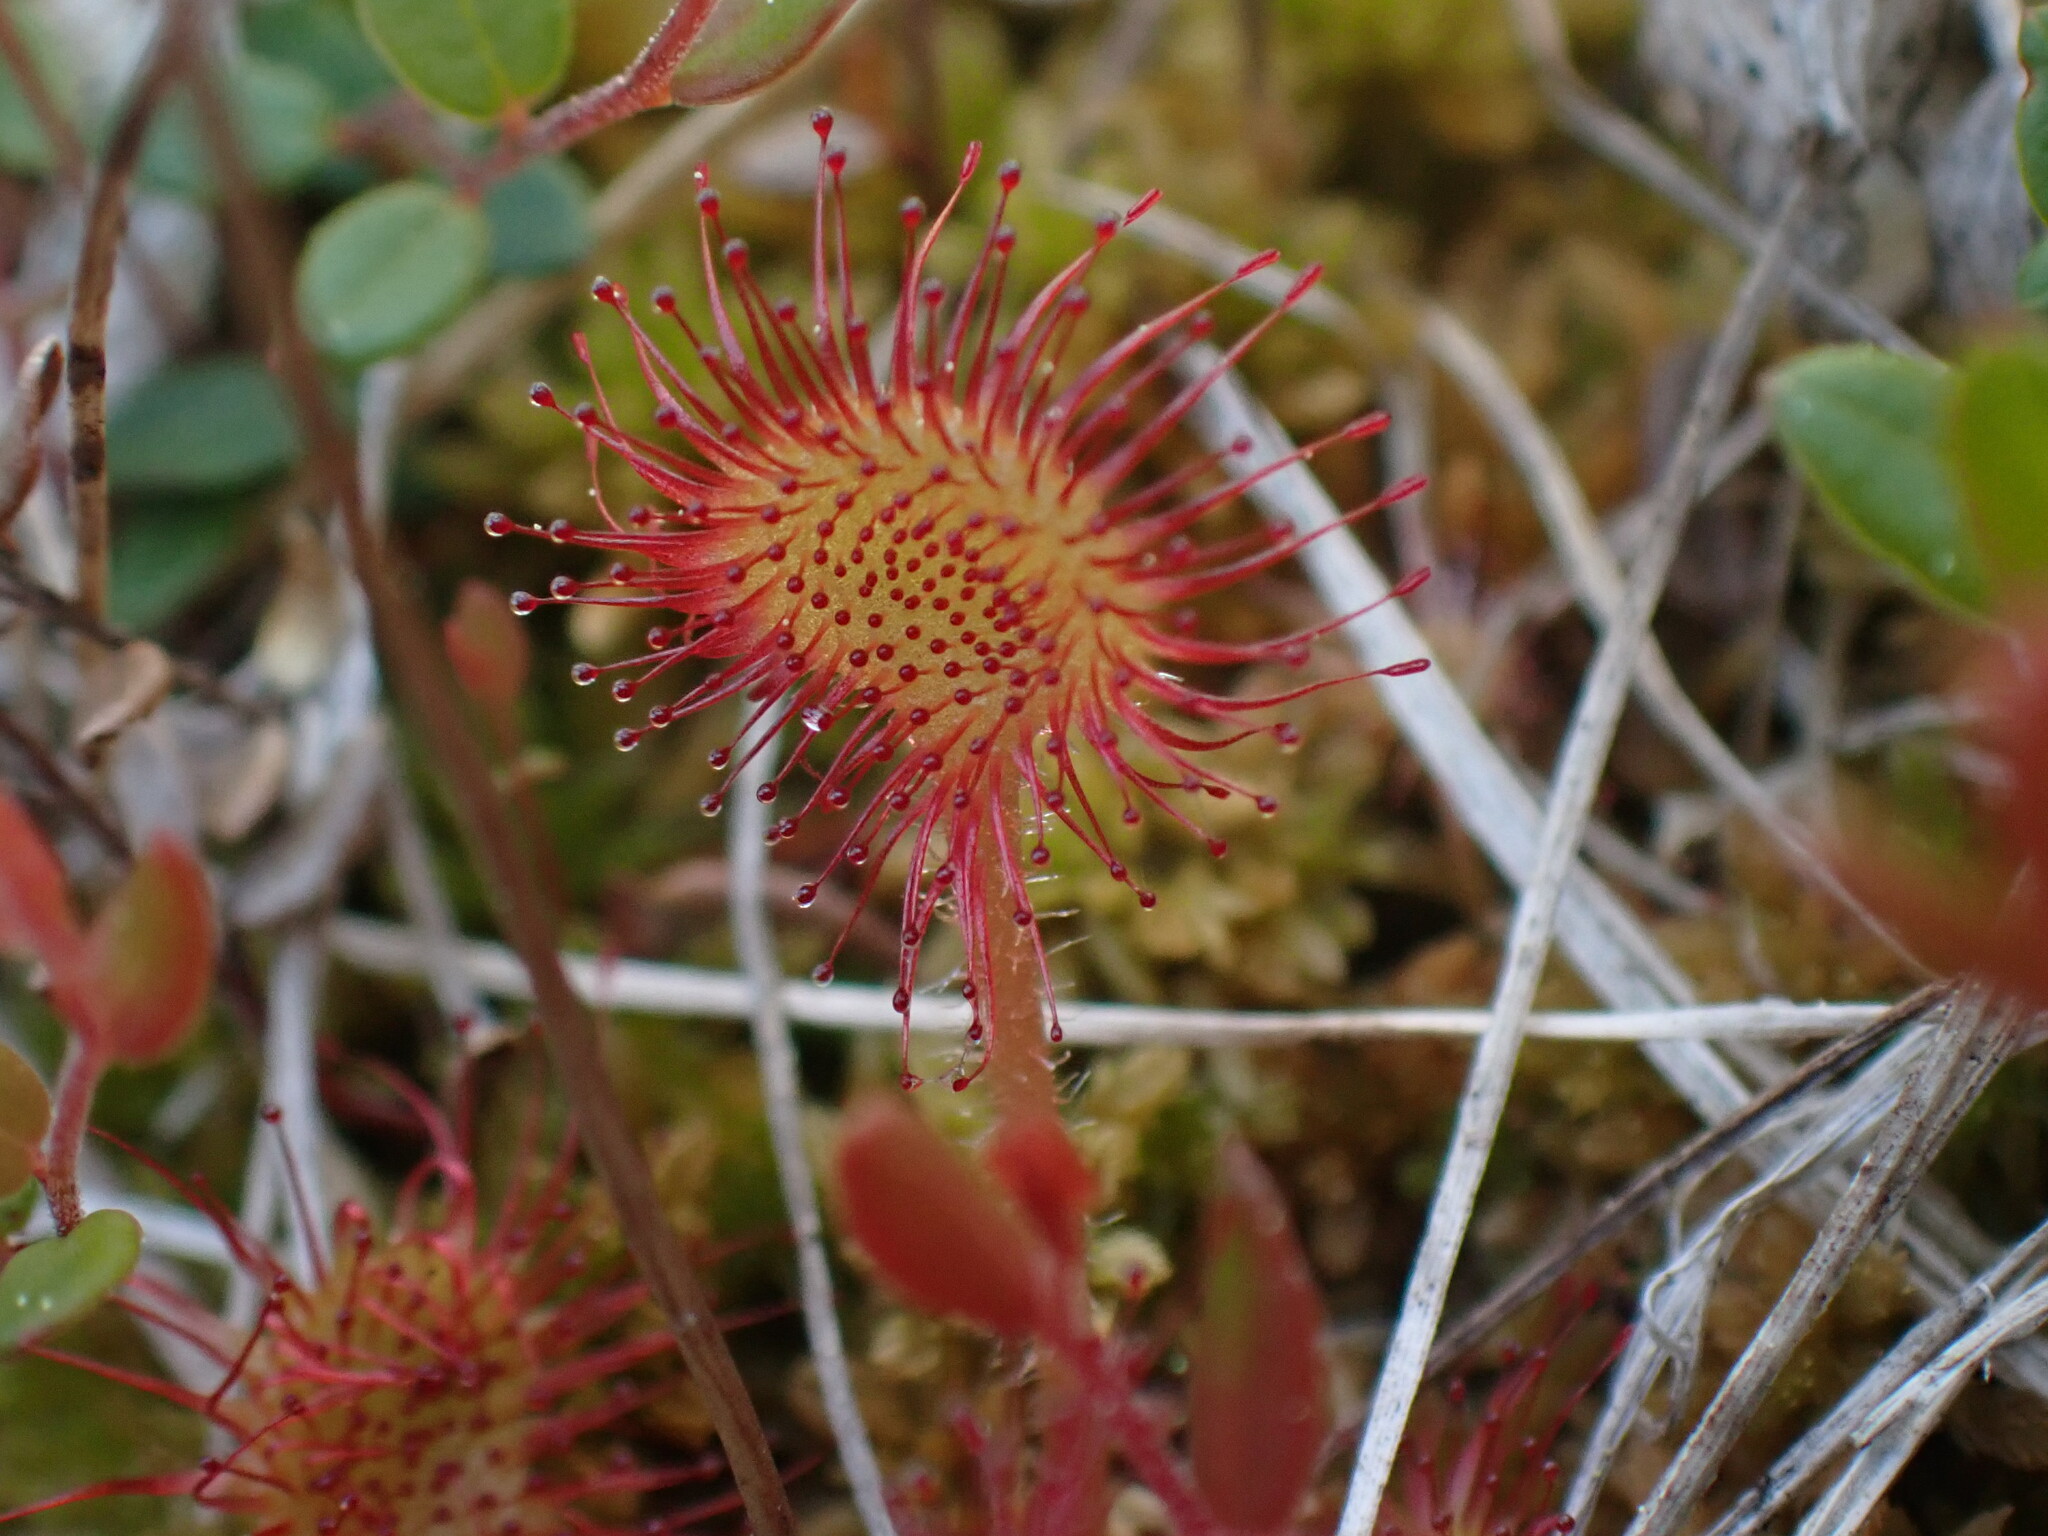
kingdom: Plantae
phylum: Tracheophyta
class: Magnoliopsida
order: Caryophyllales
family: Droseraceae
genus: Drosera
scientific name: Drosera rotundifolia
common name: Round-leaved sundew
